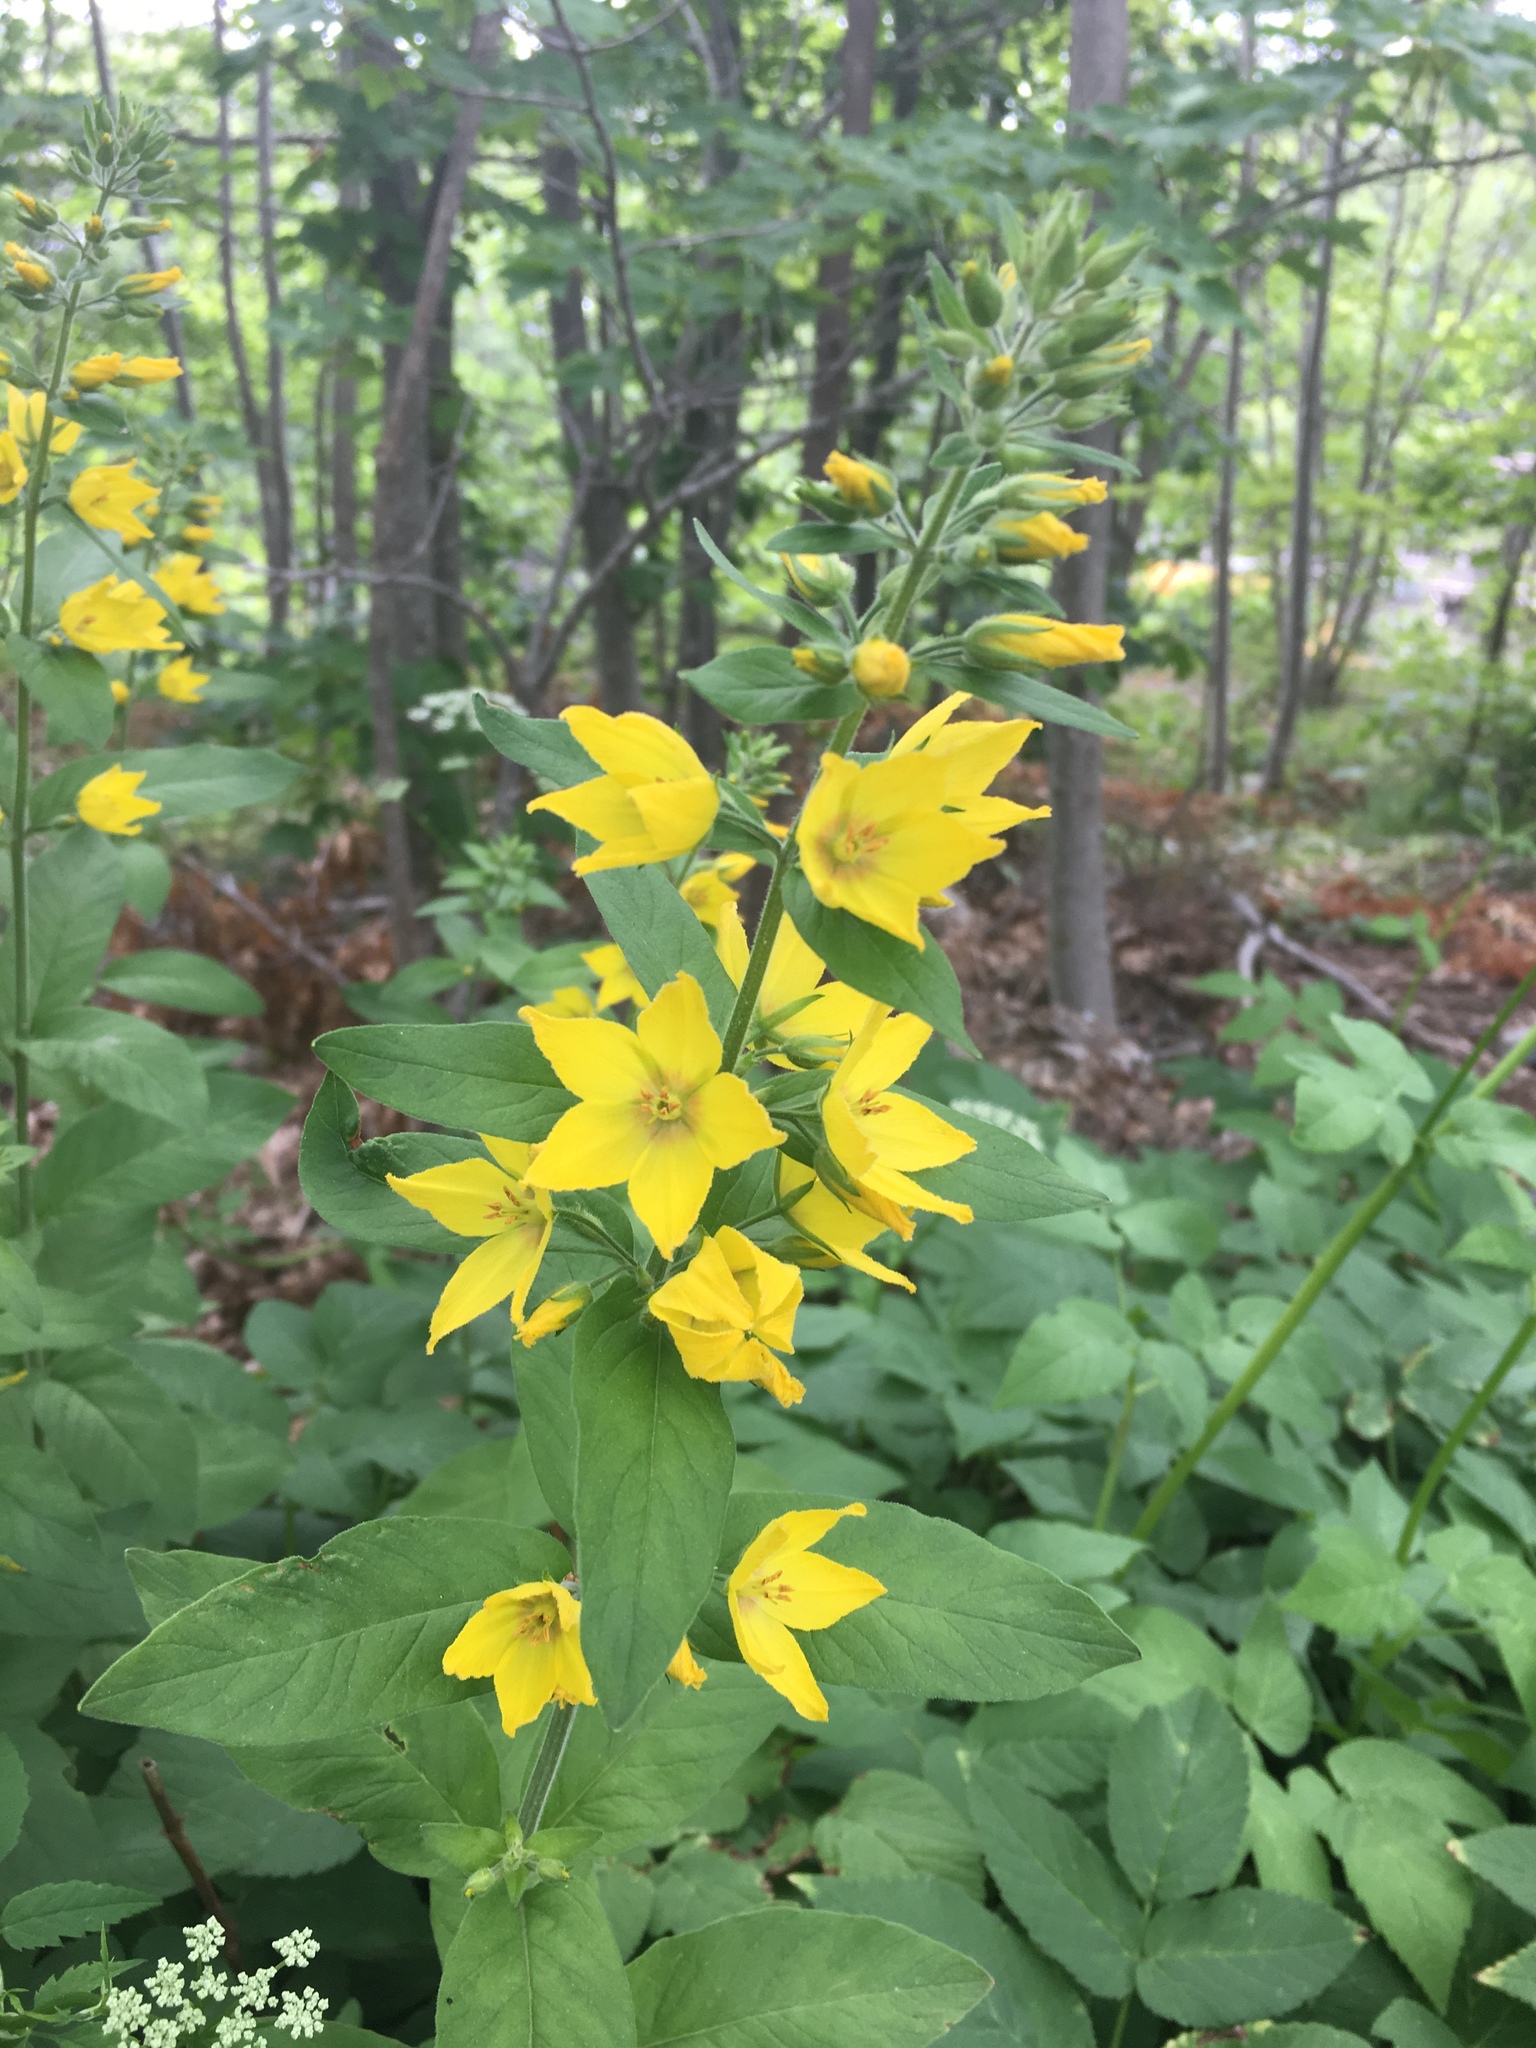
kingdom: Plantae
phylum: Tracheophyta
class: Magnoliopsida
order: Ericales
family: Primulaceae
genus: Lysimachia
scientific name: Lysimachia punctata
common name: Dotted loosestrife
